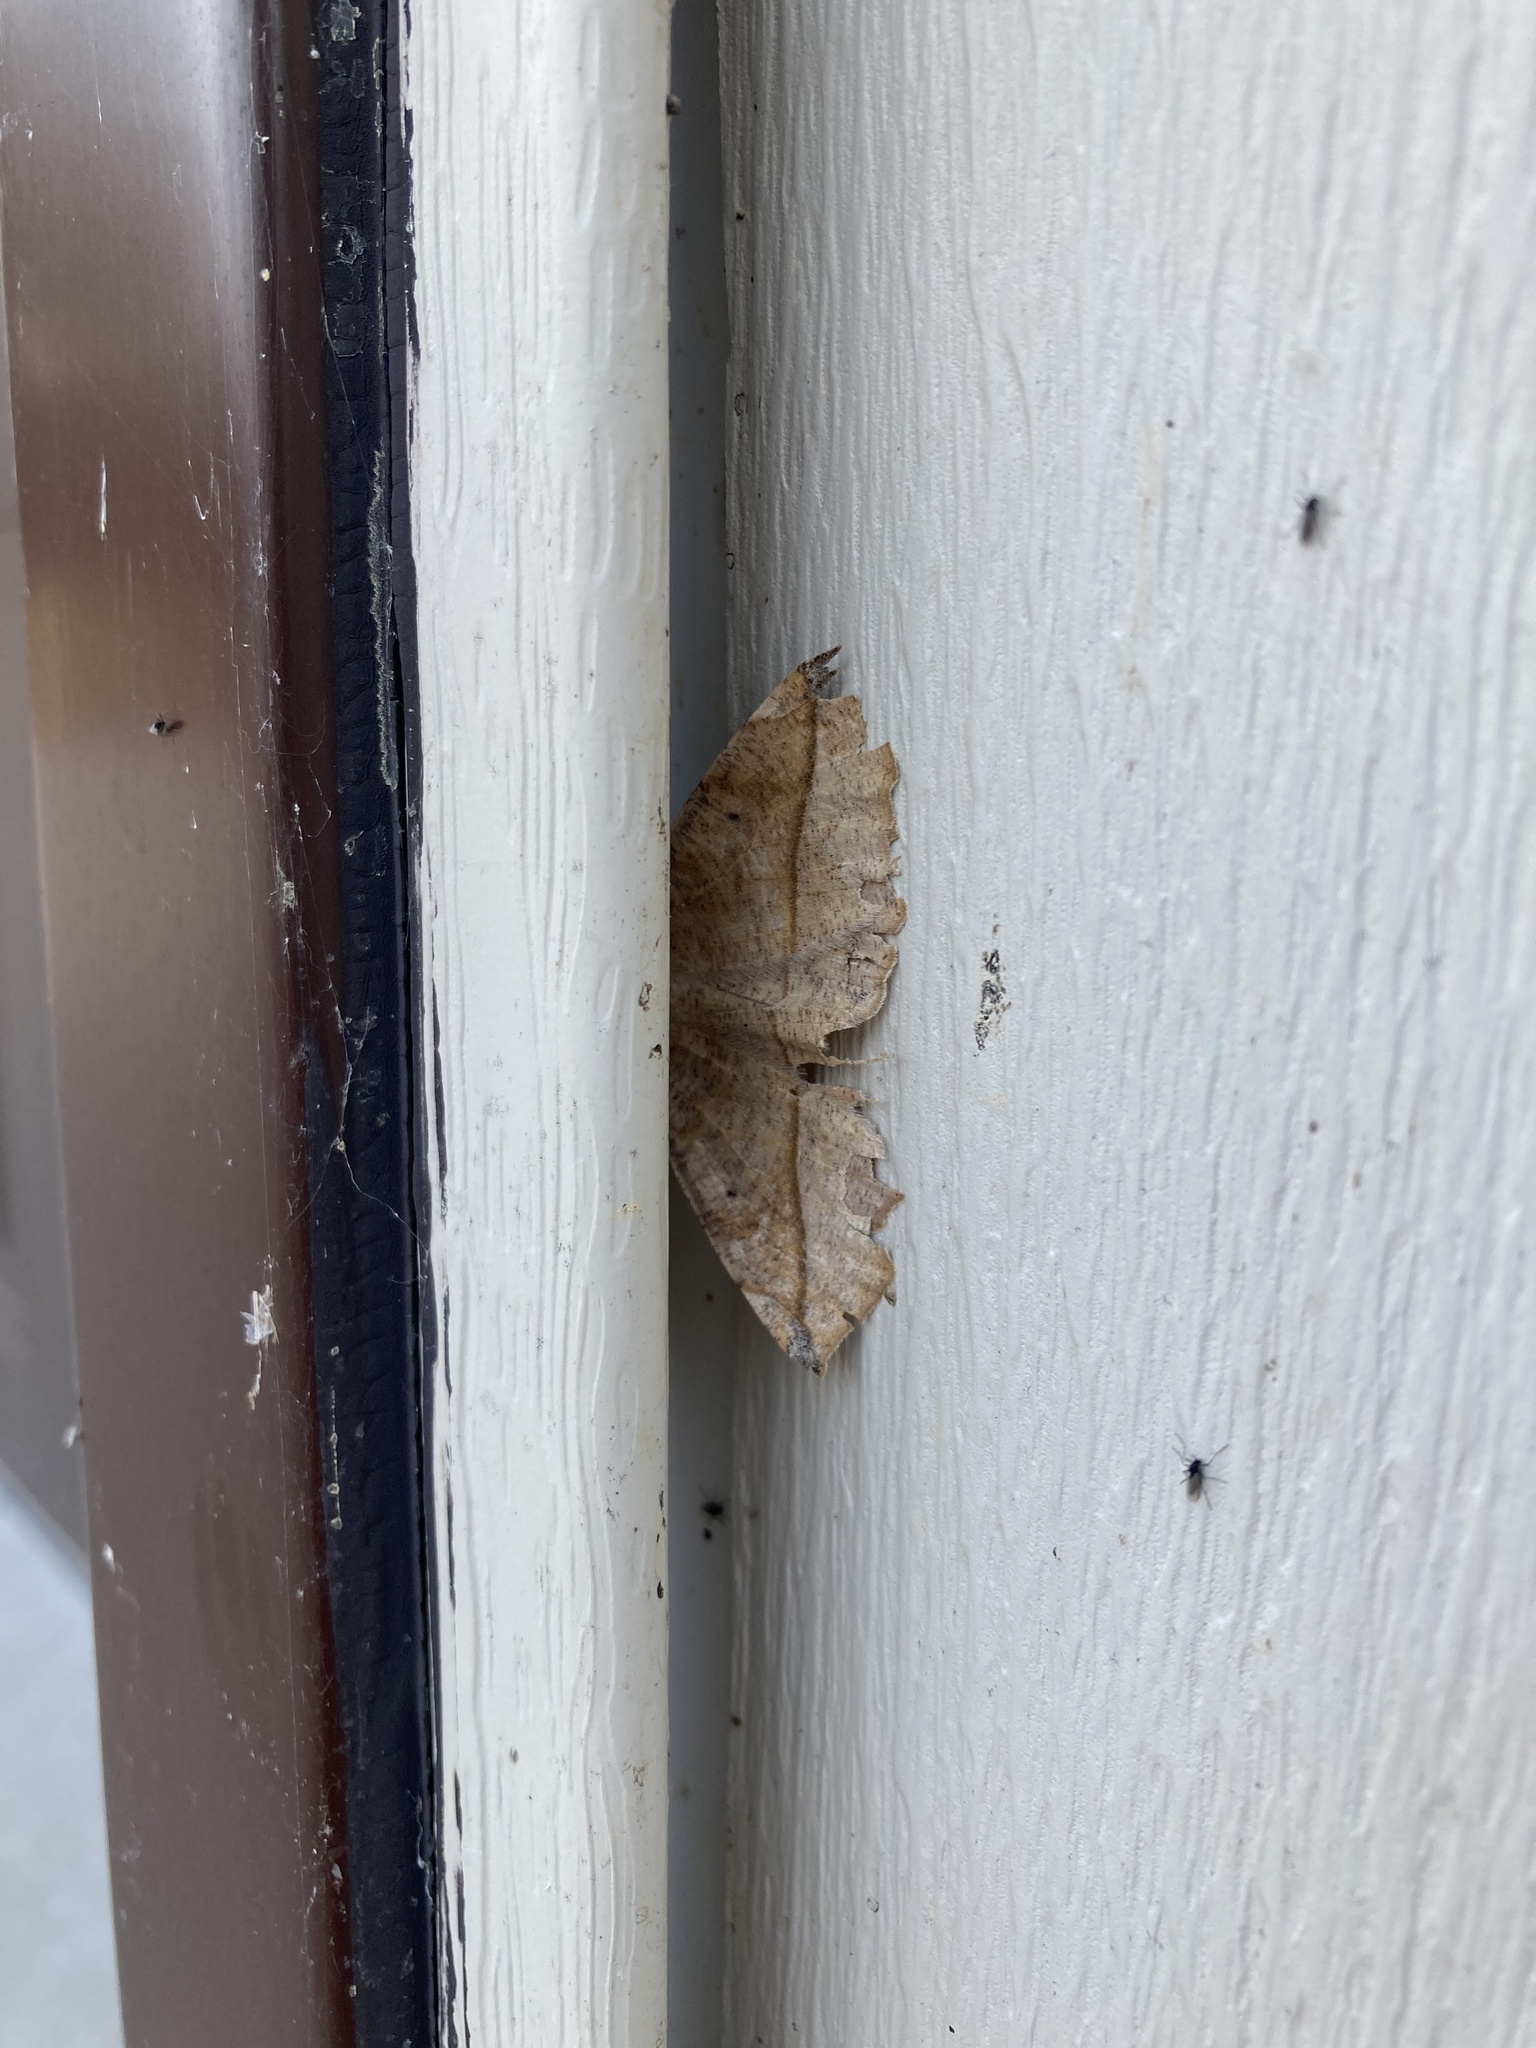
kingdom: Animalia
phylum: Arthropoda
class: Insecta
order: Lepidoptera
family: Geometridae
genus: Eutrapela
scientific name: Eutrapela clemataria
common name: Curved-toothed geometer
